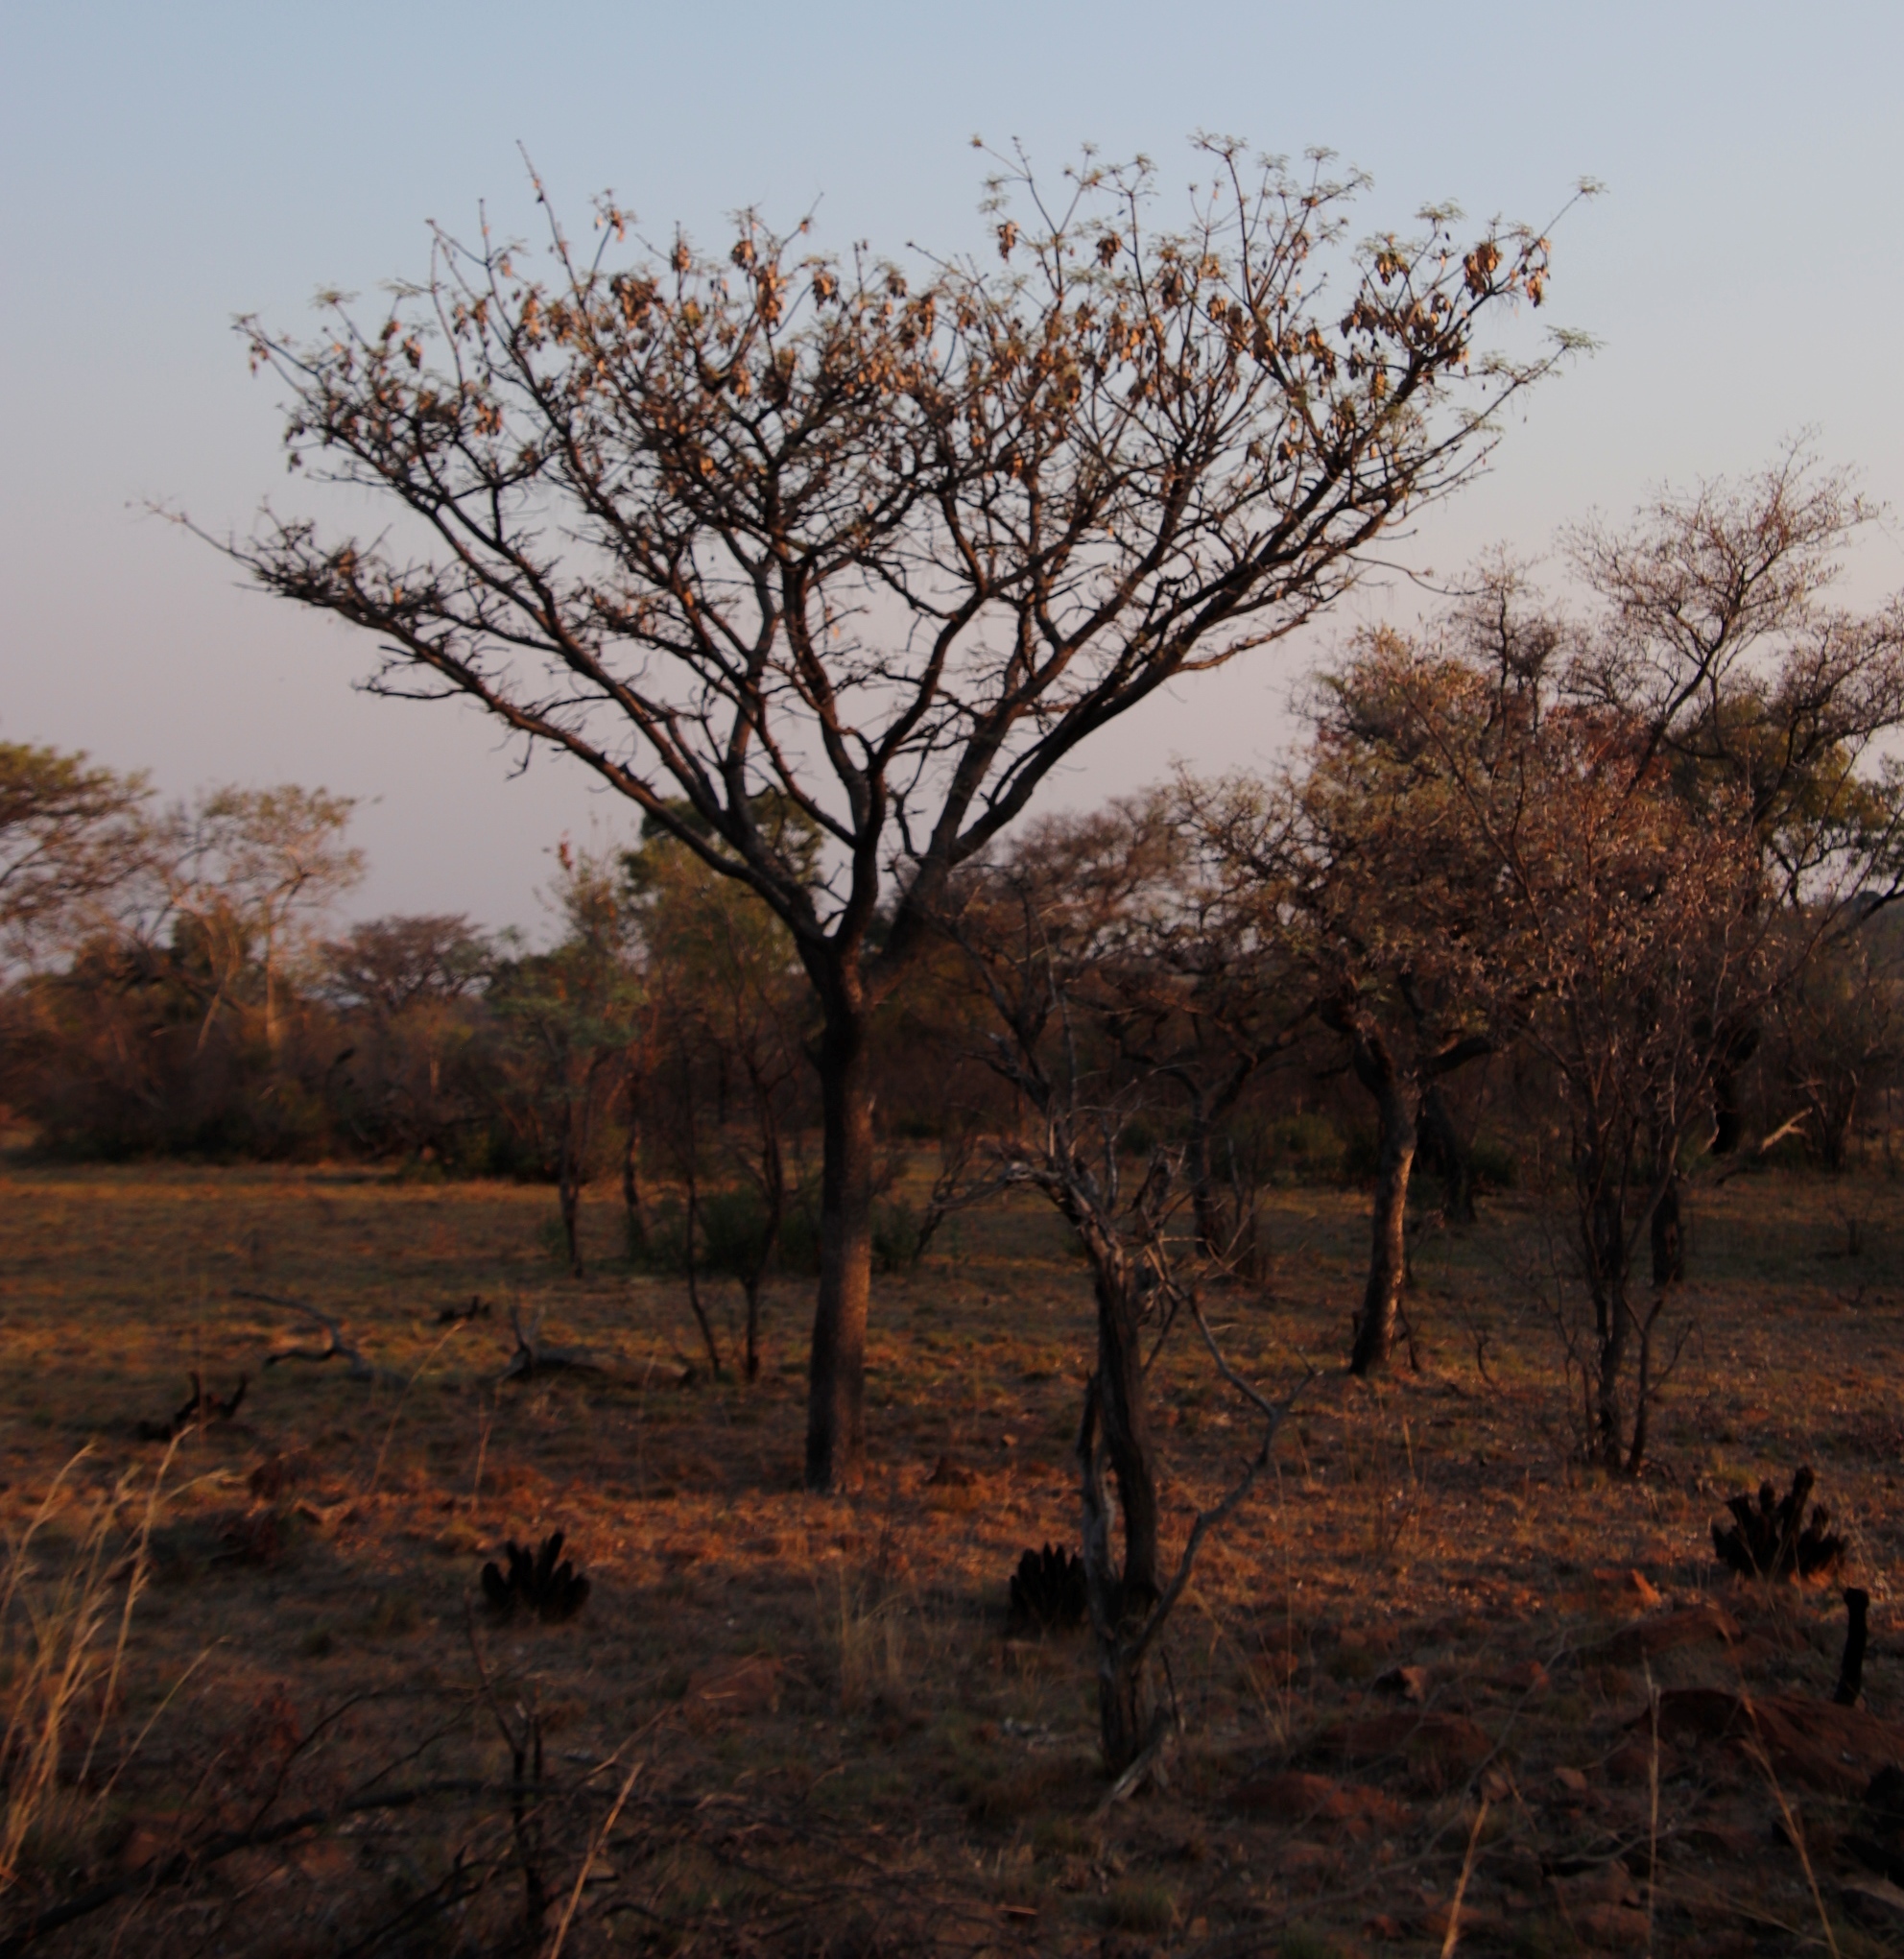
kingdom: Plantae
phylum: Tracheophyta
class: Magnoliopsida
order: Fabales
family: Fabaceae
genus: Burkea
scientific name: Burkea africana
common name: Mkalati tree
